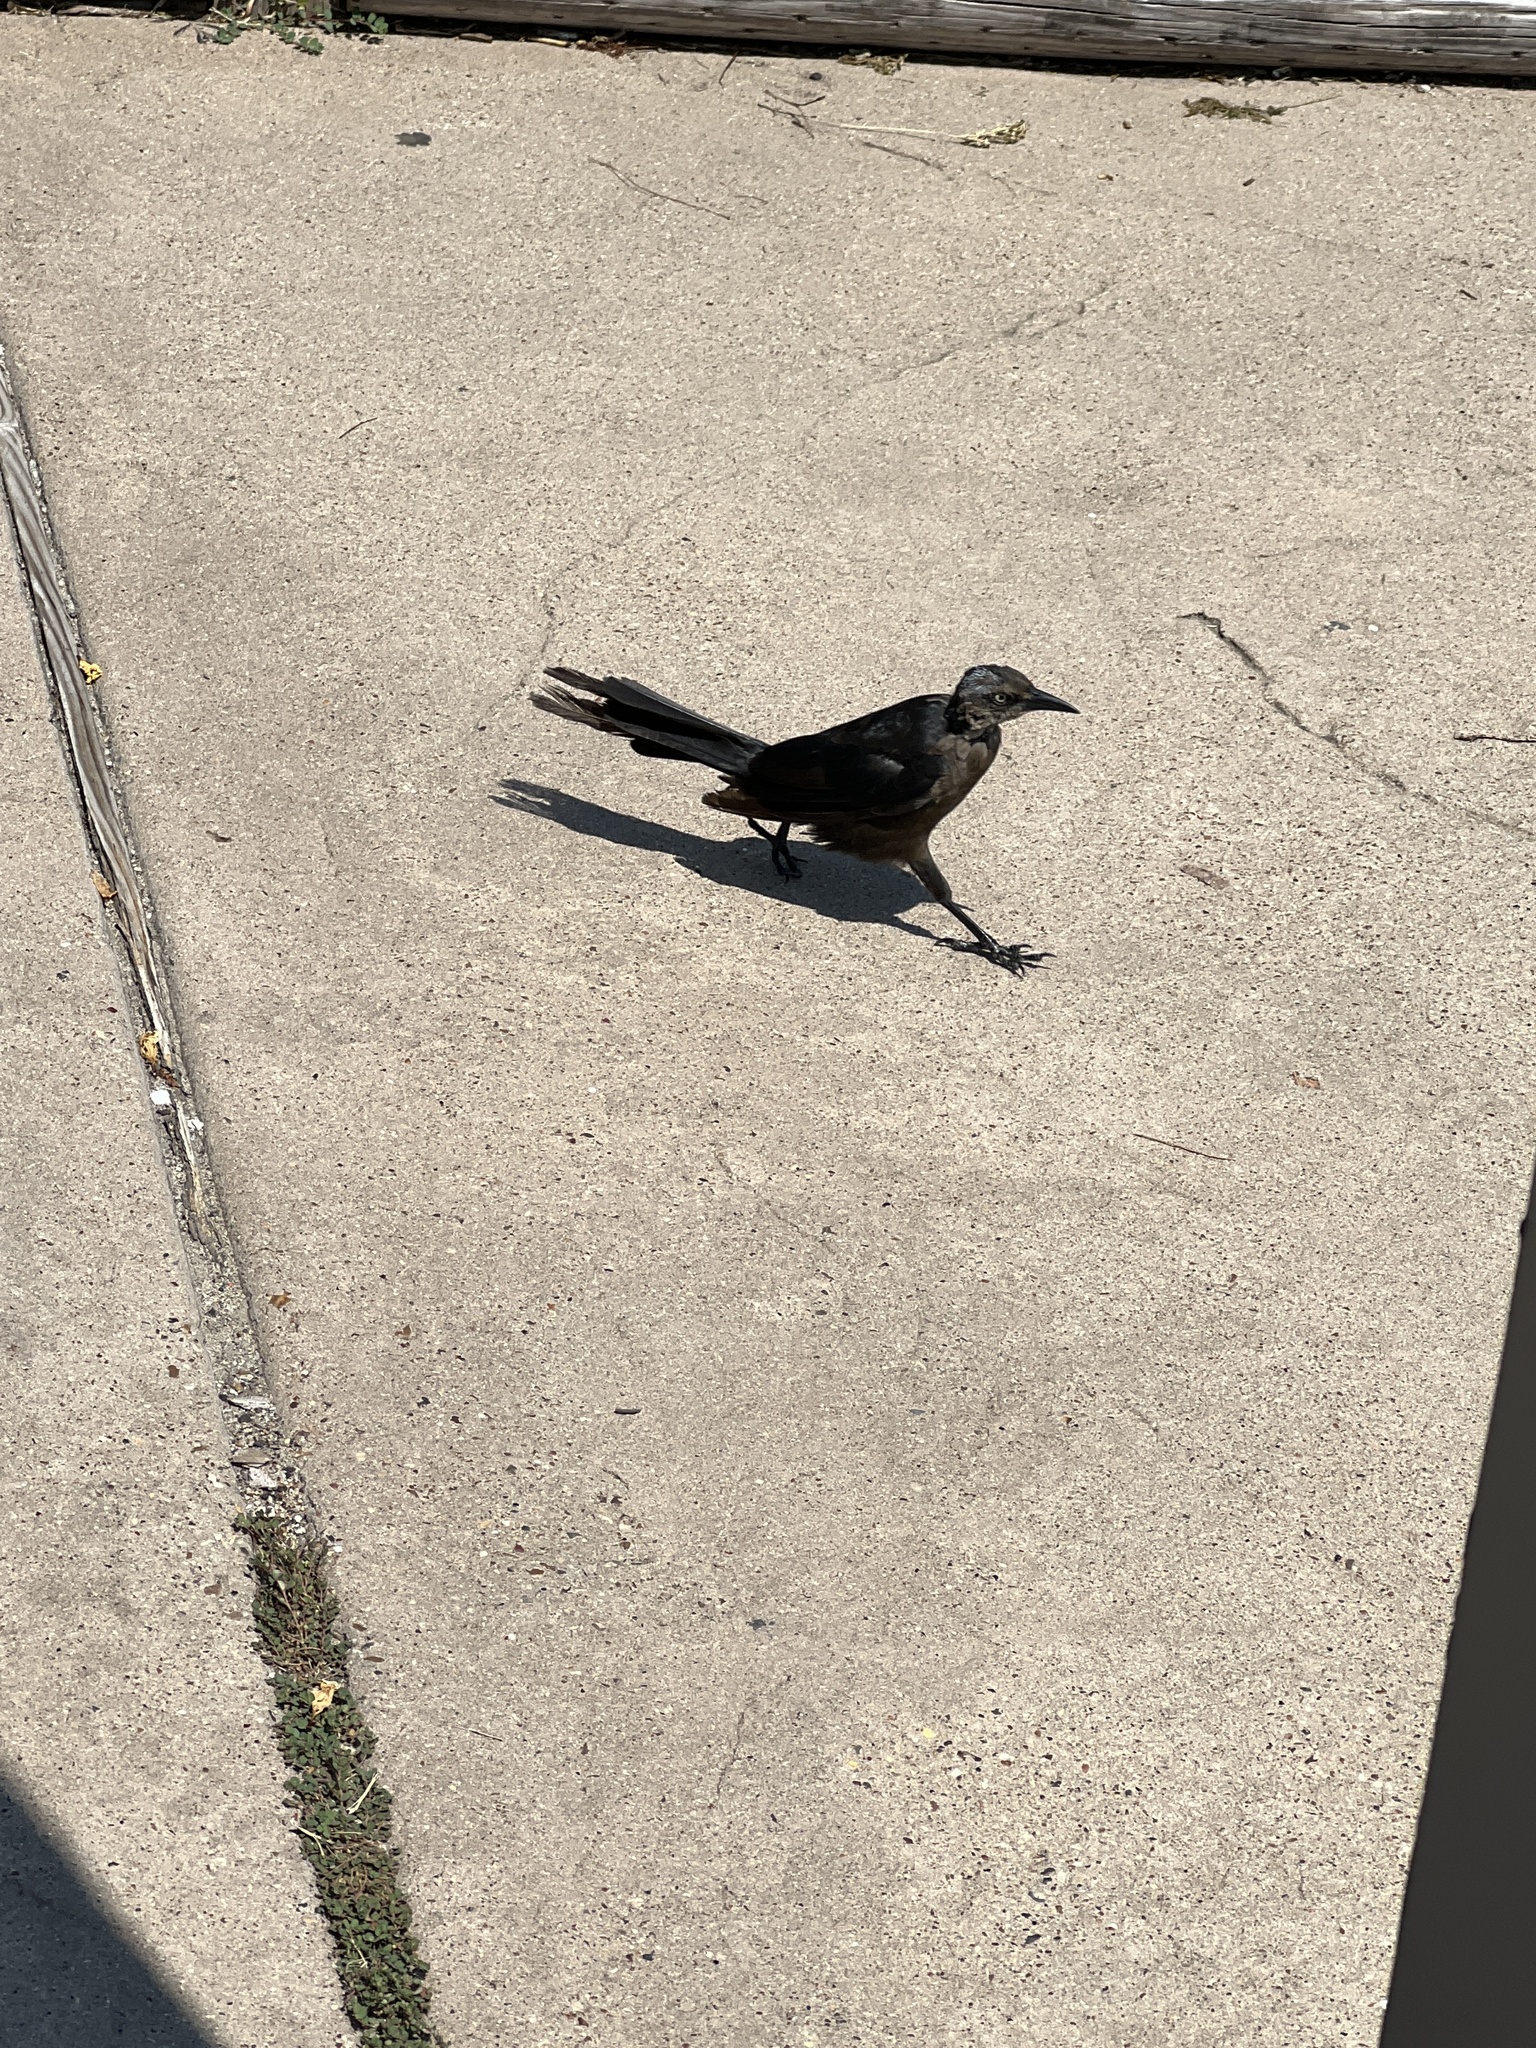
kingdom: Animalia
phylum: Chordata
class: Aves
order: Passeriformes
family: Icteridae
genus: Quiscalus
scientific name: Quiscalus mexicanus
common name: Great-tailed grackle
